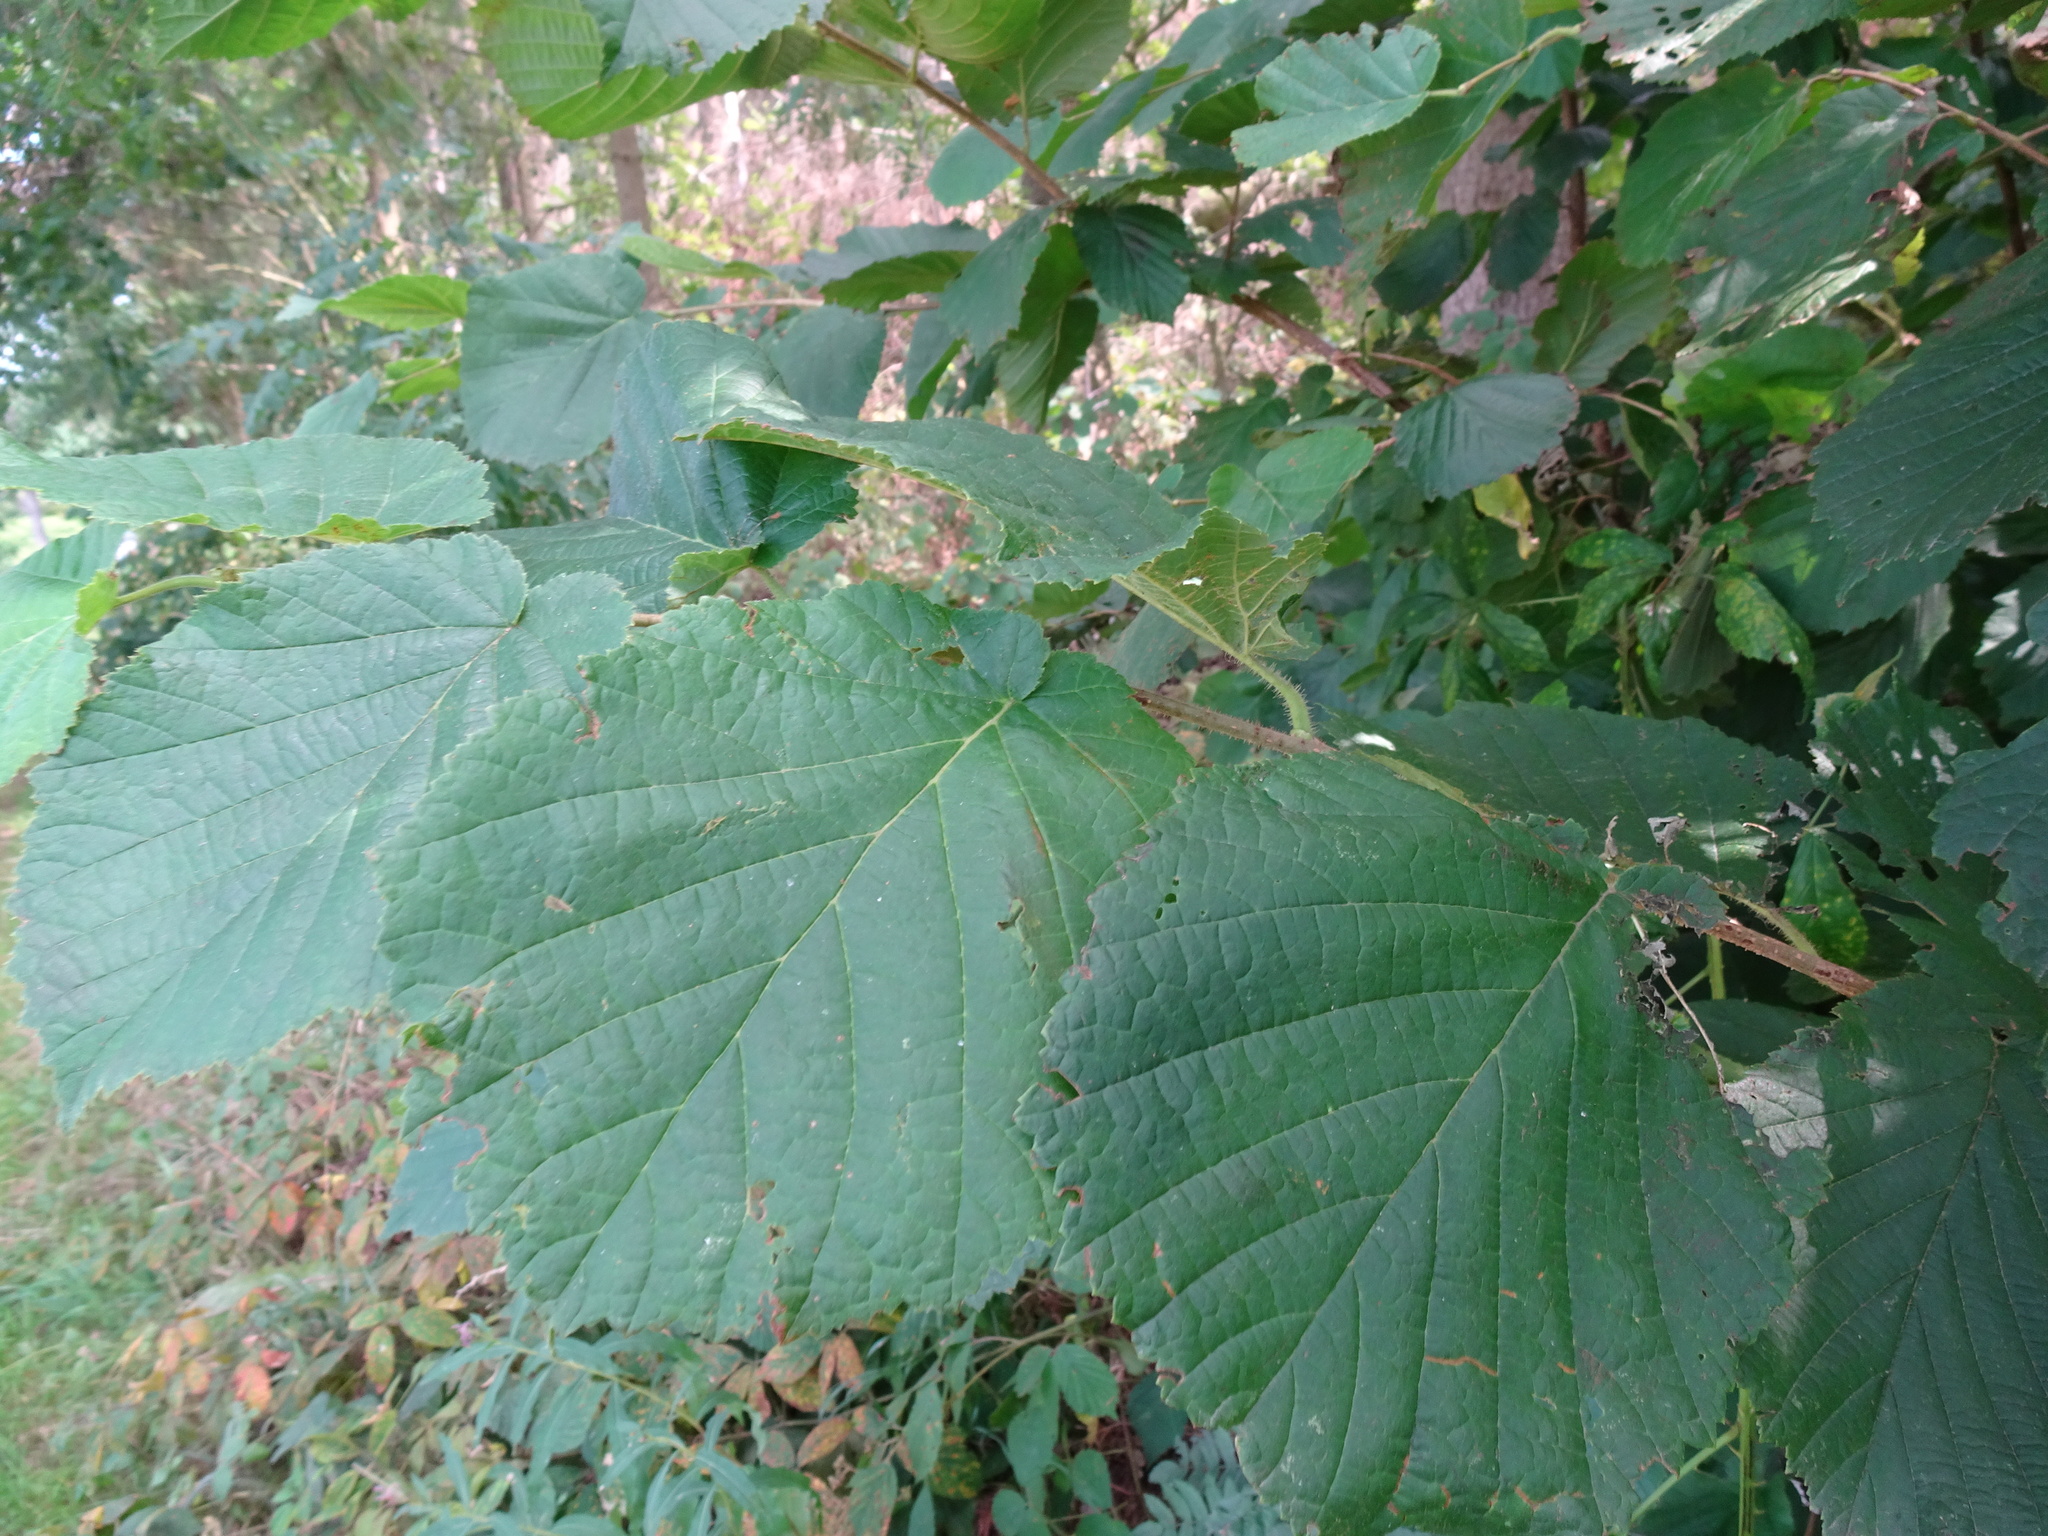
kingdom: Plantae
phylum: Tracheophyta
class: Magnoliopsida
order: Fagales
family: Betulaceae
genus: Corylus
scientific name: Corylus avellana
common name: European hazel
